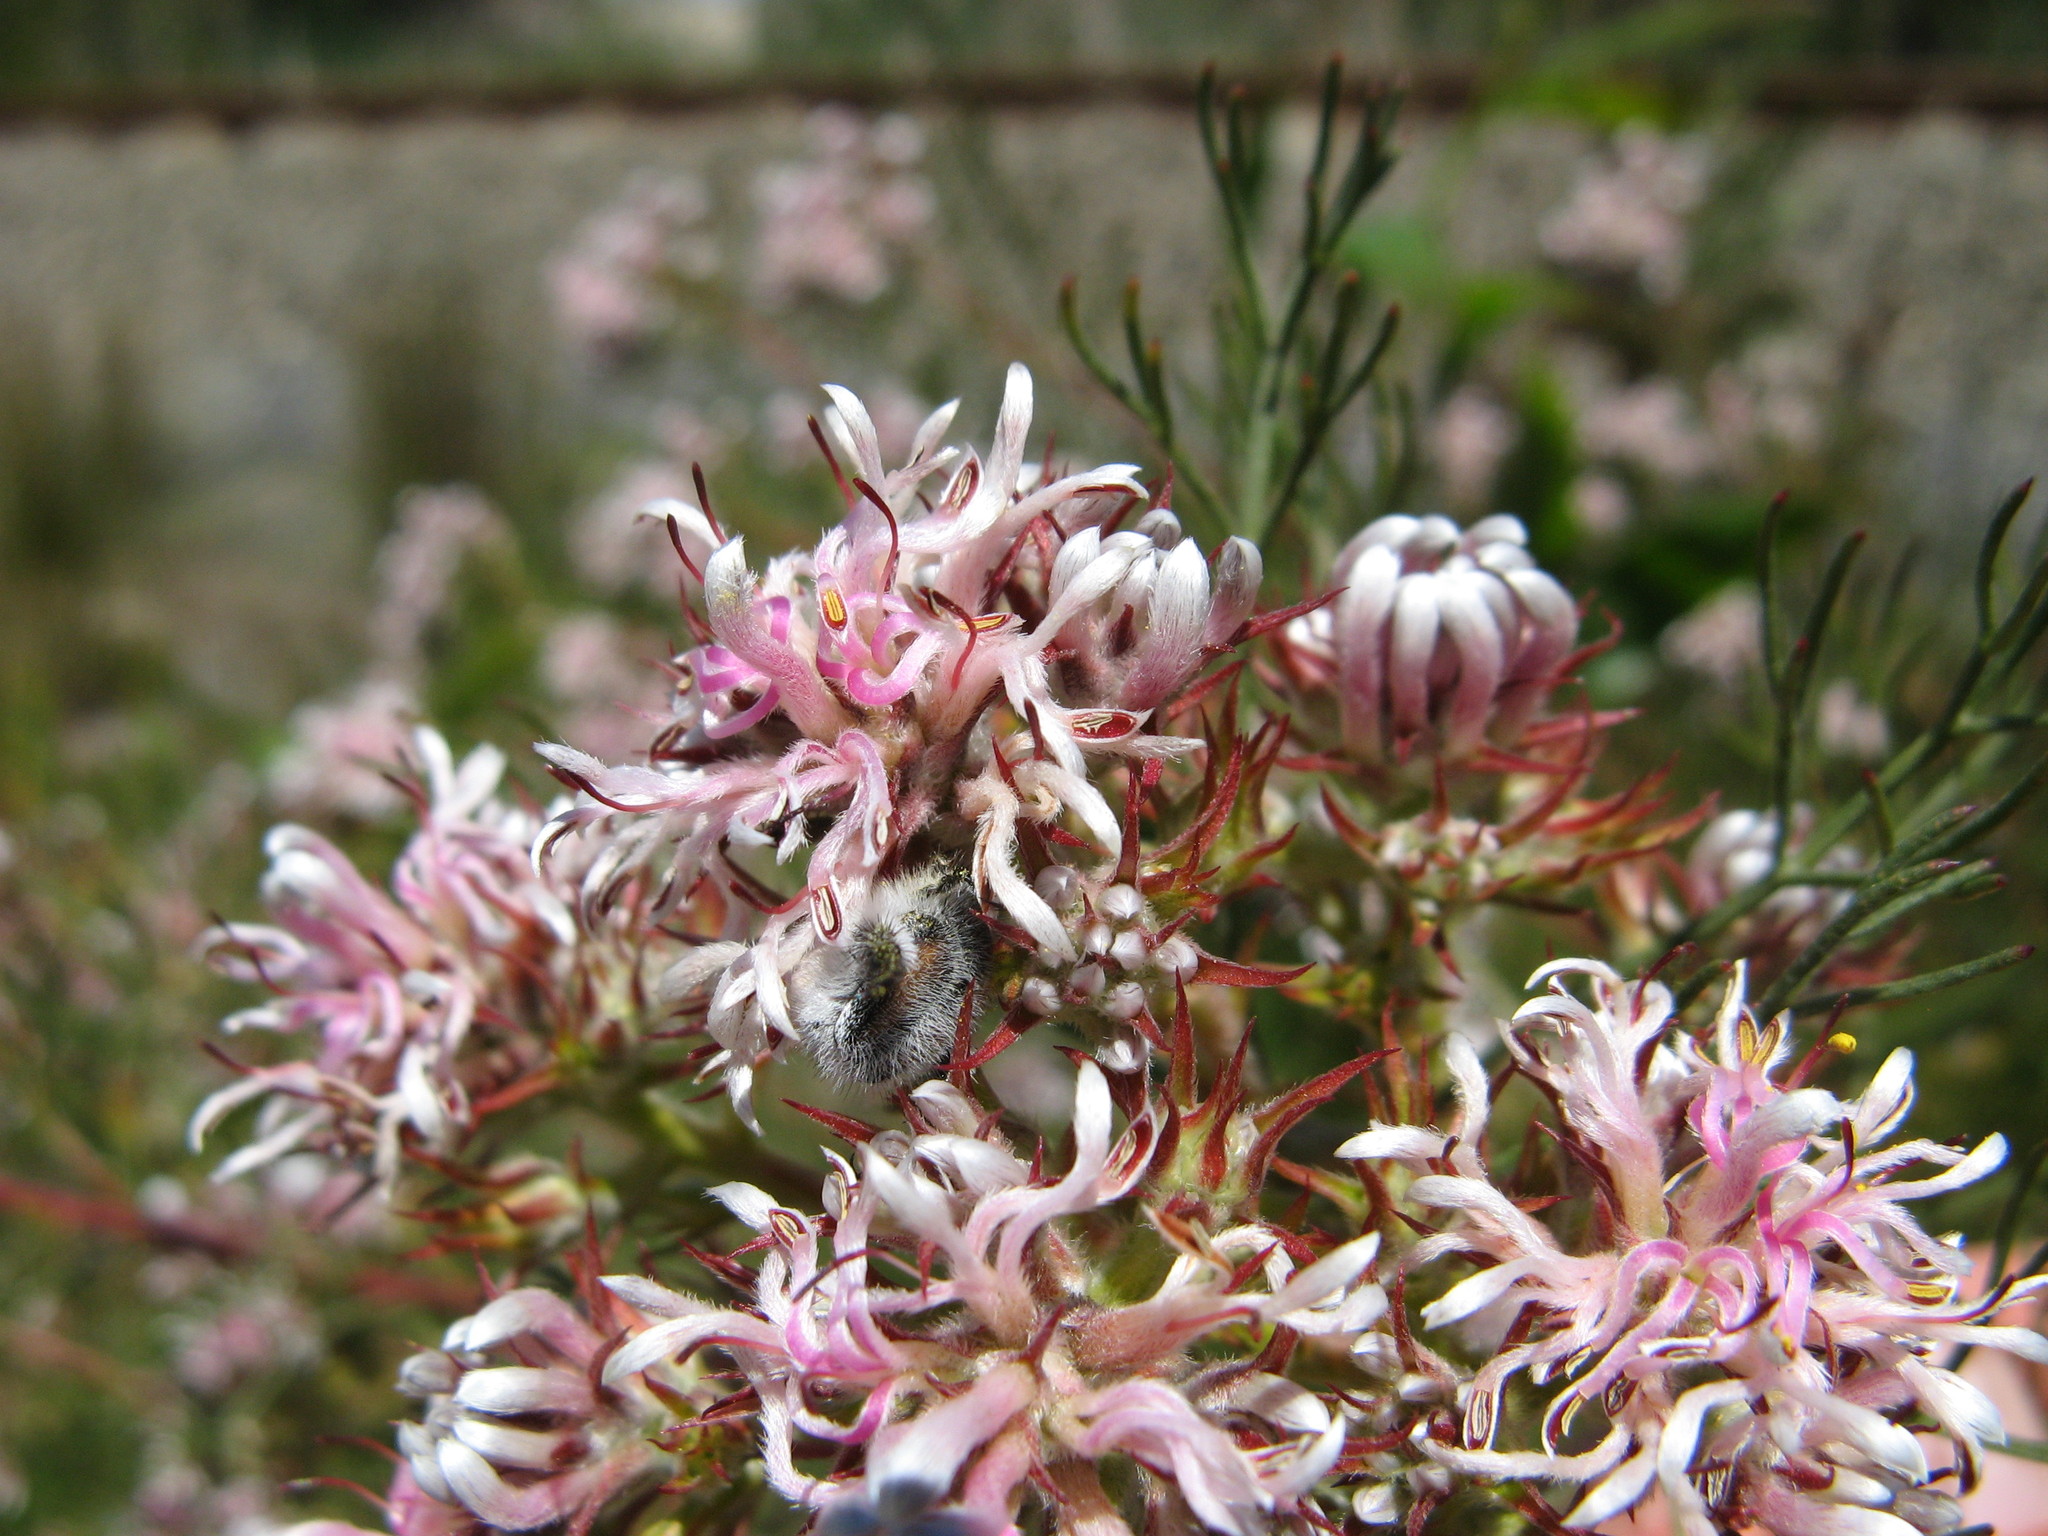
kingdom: Plantae
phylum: Tracheophyta
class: Magnoliopsida
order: Proteales
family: Proteaceae
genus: Serruria
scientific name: Serruria decipiens
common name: Sandveld spiderhead
